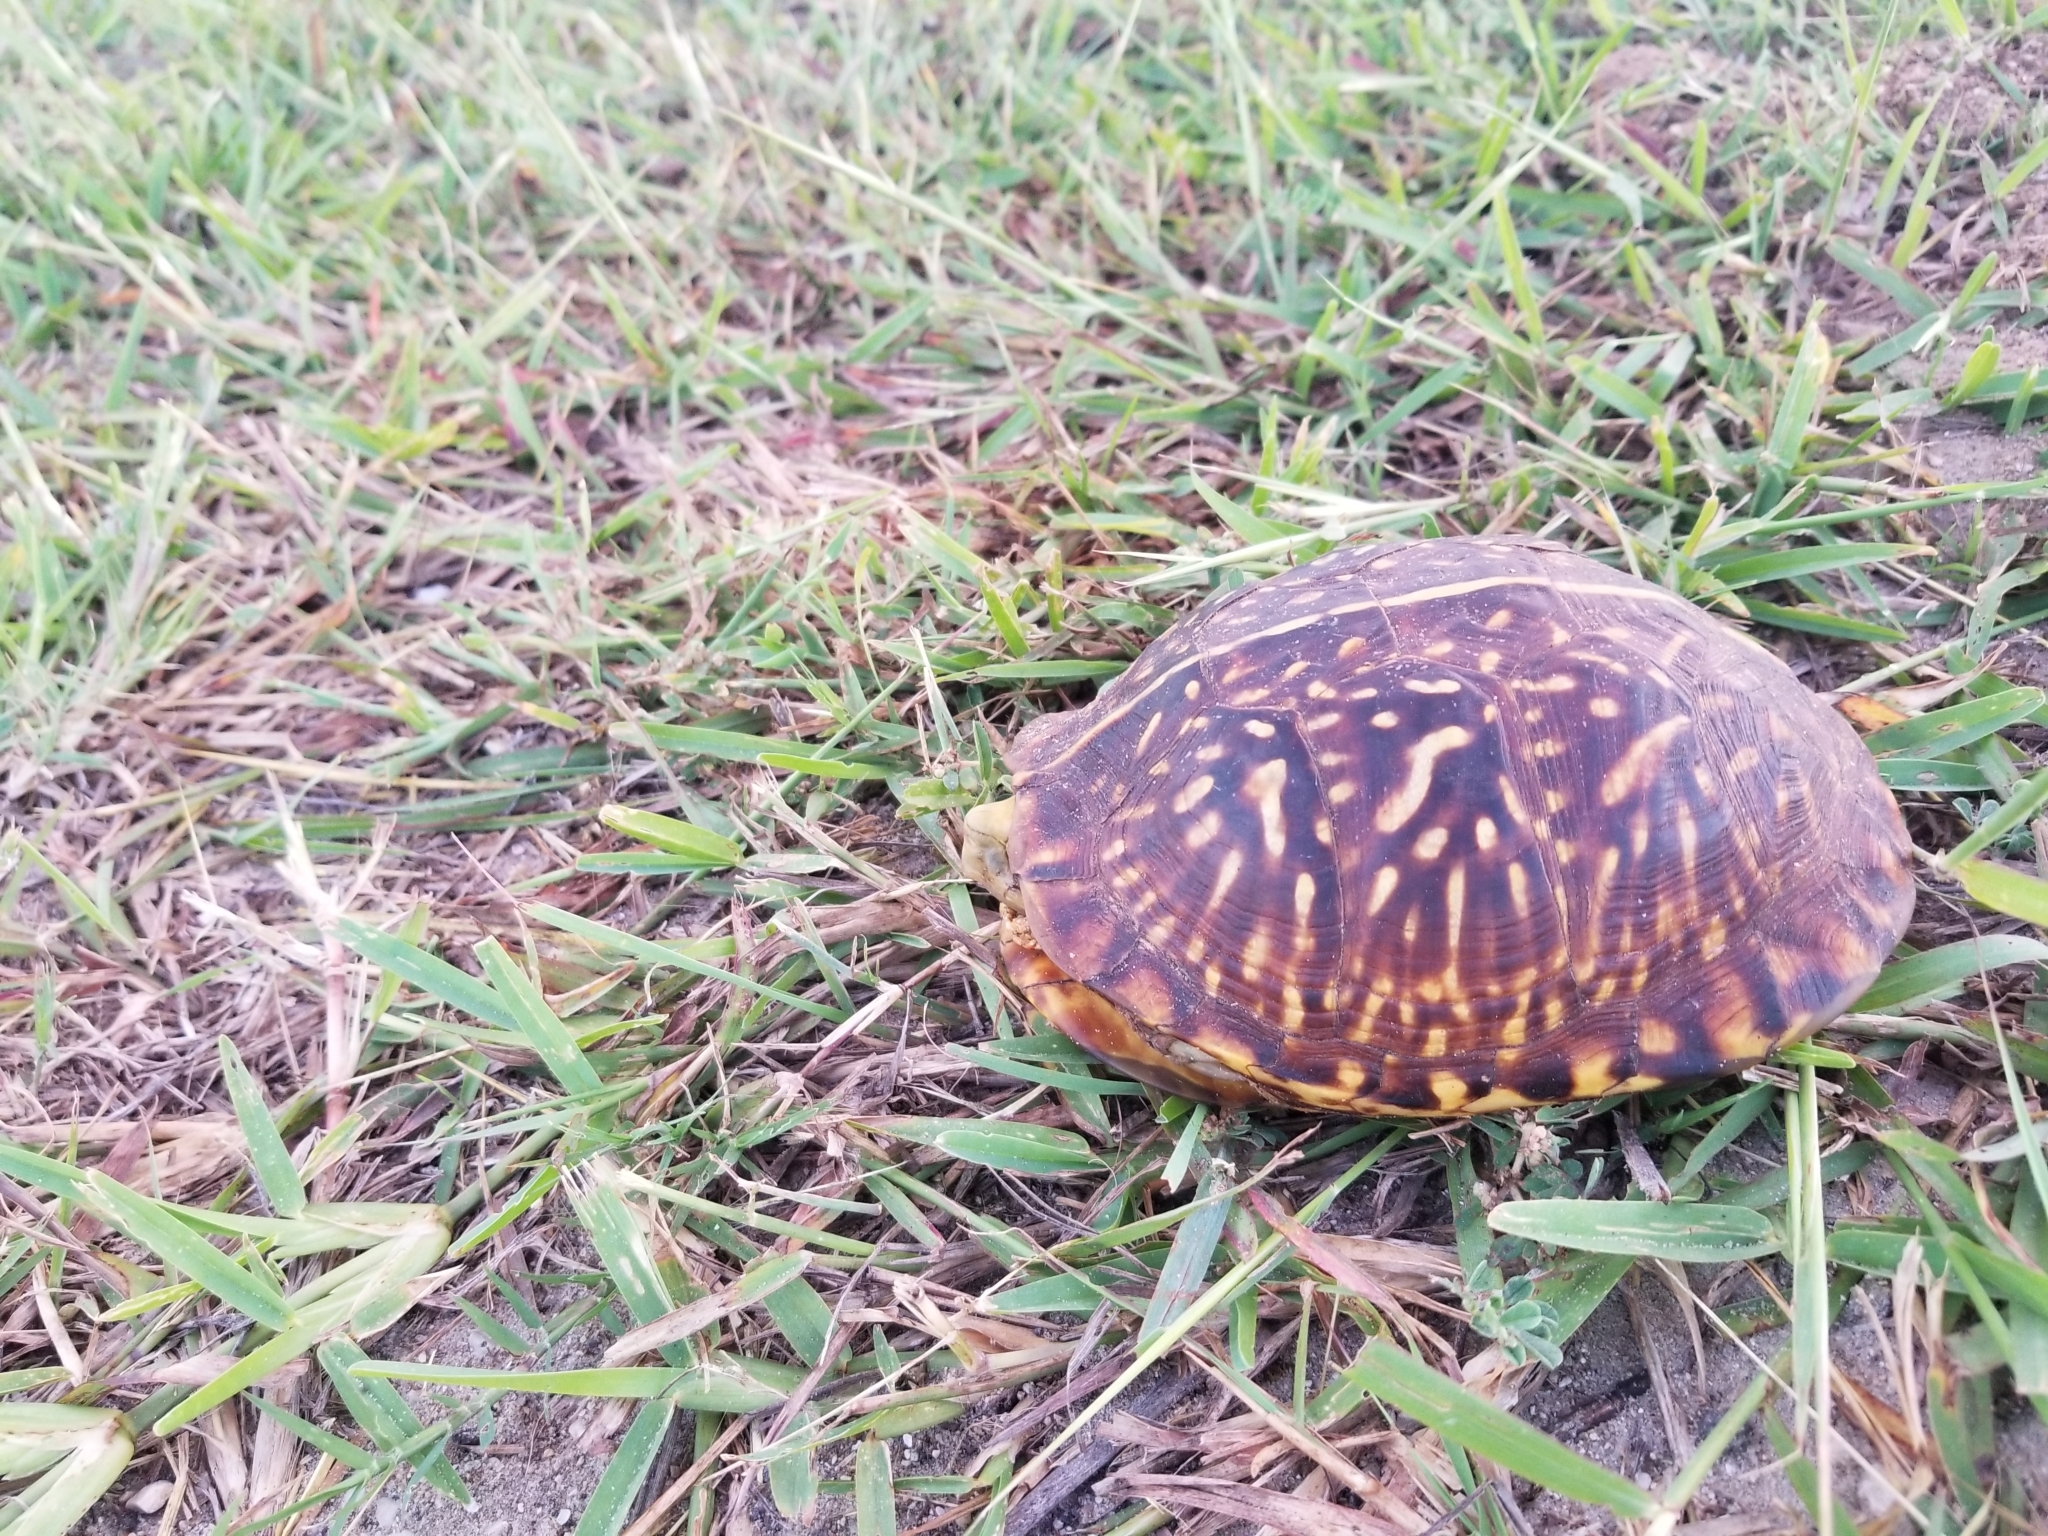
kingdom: Animalia
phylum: Chordata
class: Testudines
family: Emydidae
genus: Terrapene
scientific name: Terrapene ornata
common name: Western box turtle
